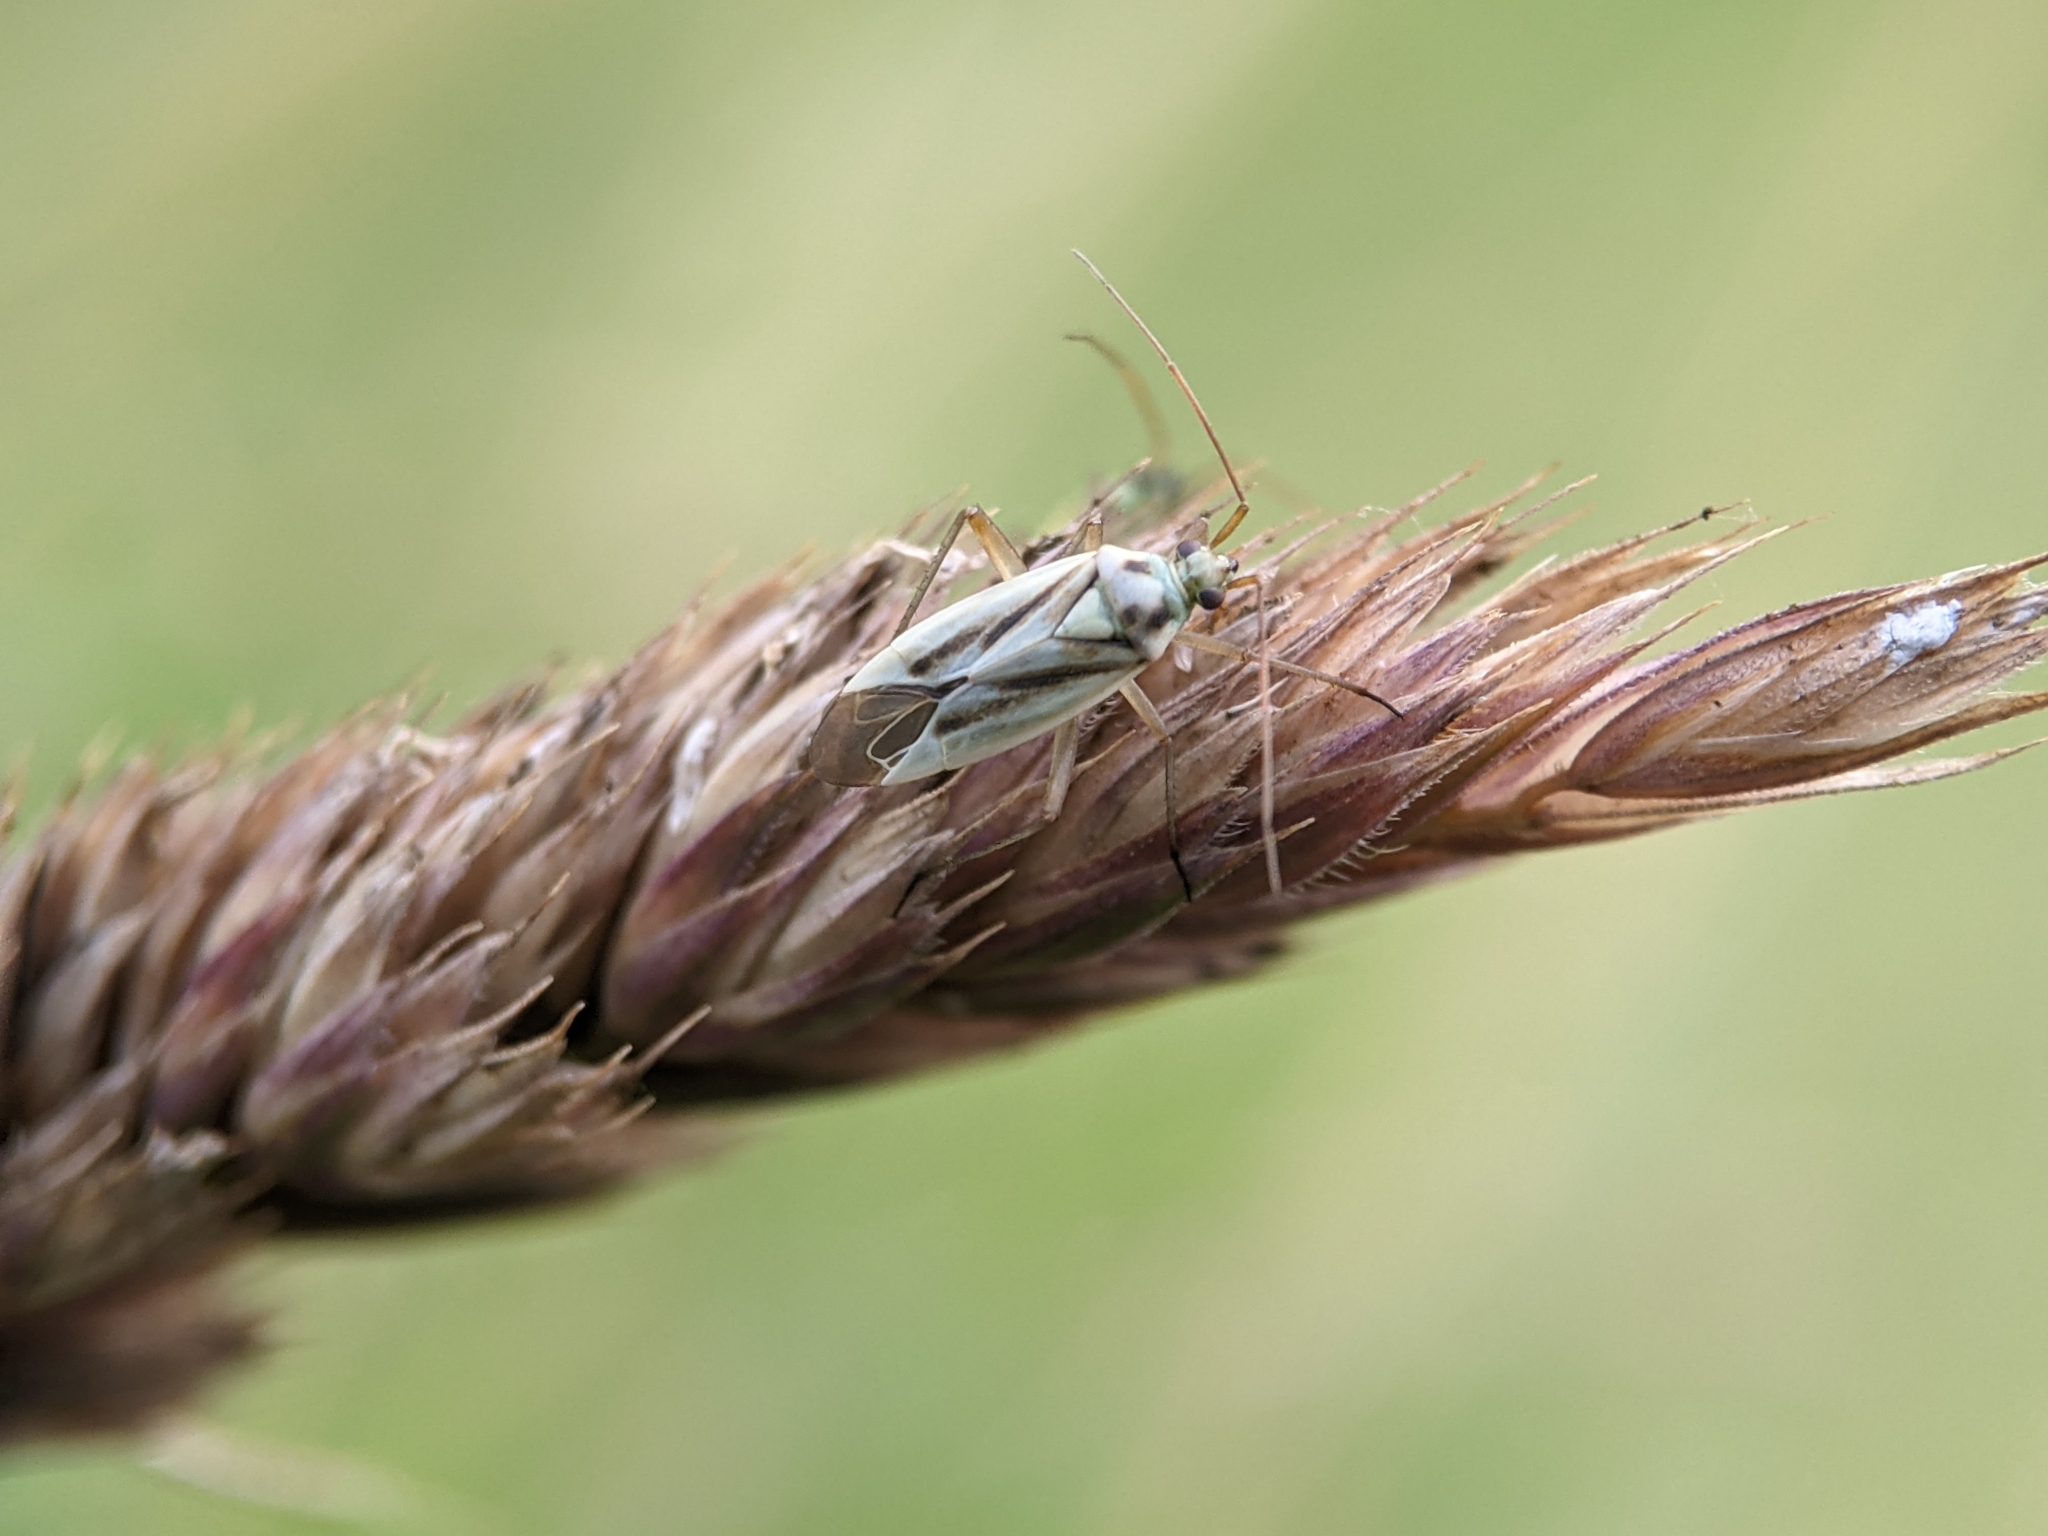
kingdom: Animalia
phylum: Arthropoda
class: Insecta
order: Hemiptera
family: Miridae
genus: Stenotus
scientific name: Stenotus binotatus
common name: Plant bug
